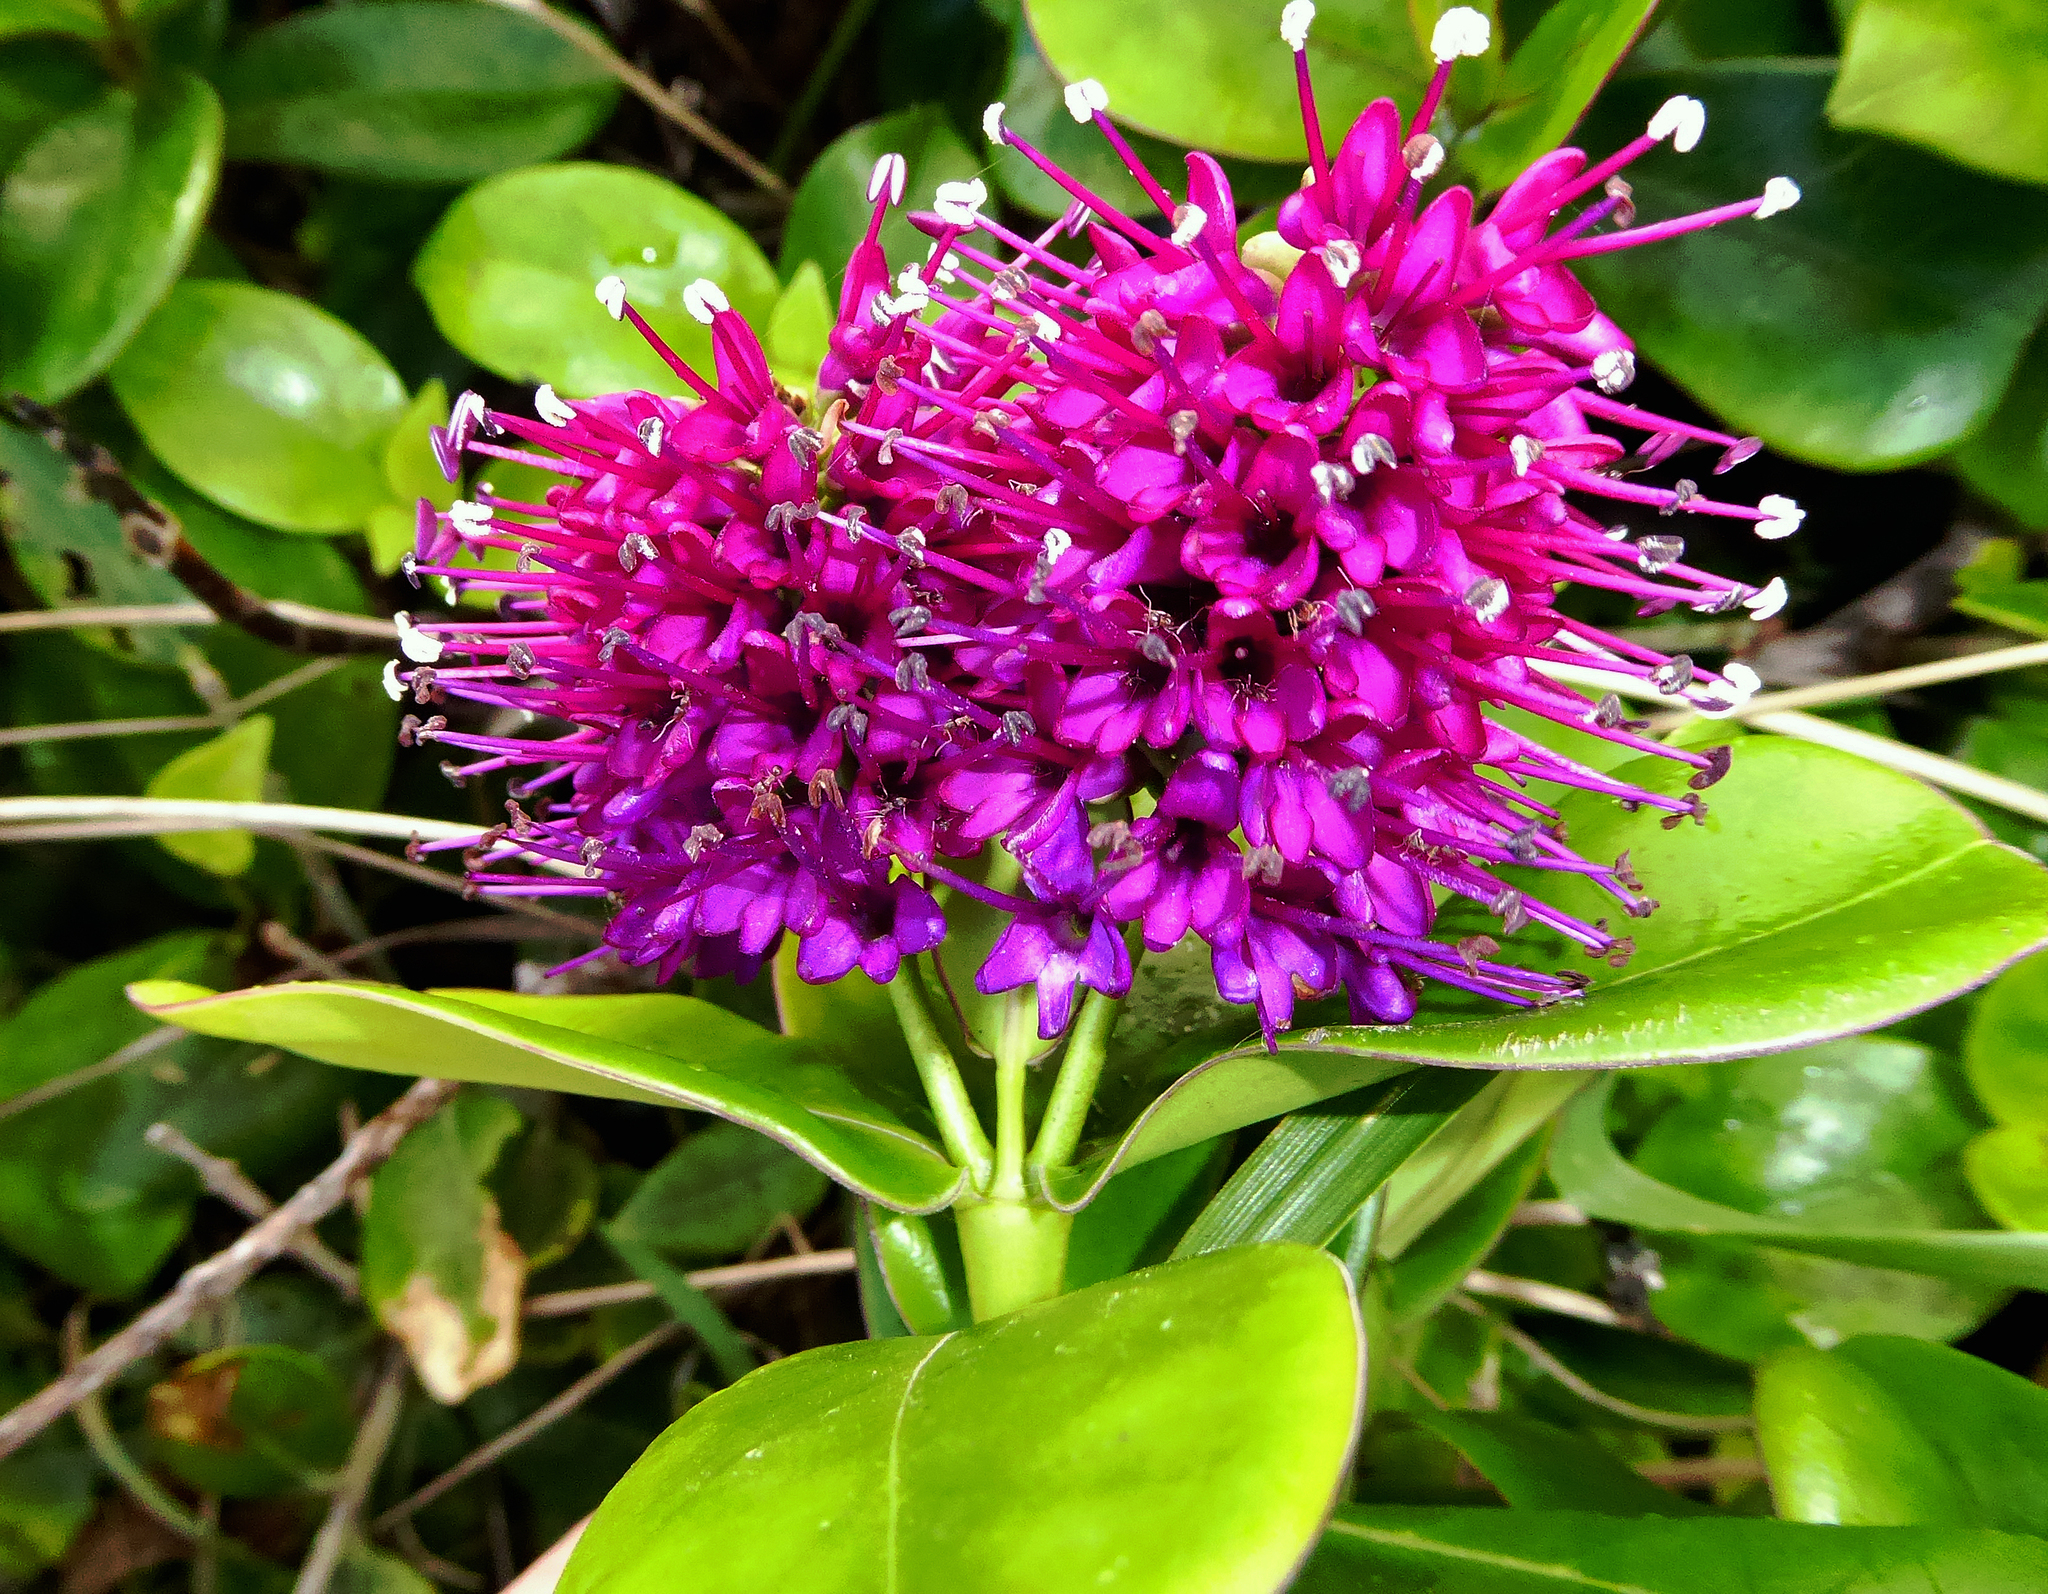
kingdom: Plantae
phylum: Tracheophyta
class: Magnoliopsida
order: Lamiales
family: Plantaginaceae
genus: Veronica
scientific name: Veronica speciosa
